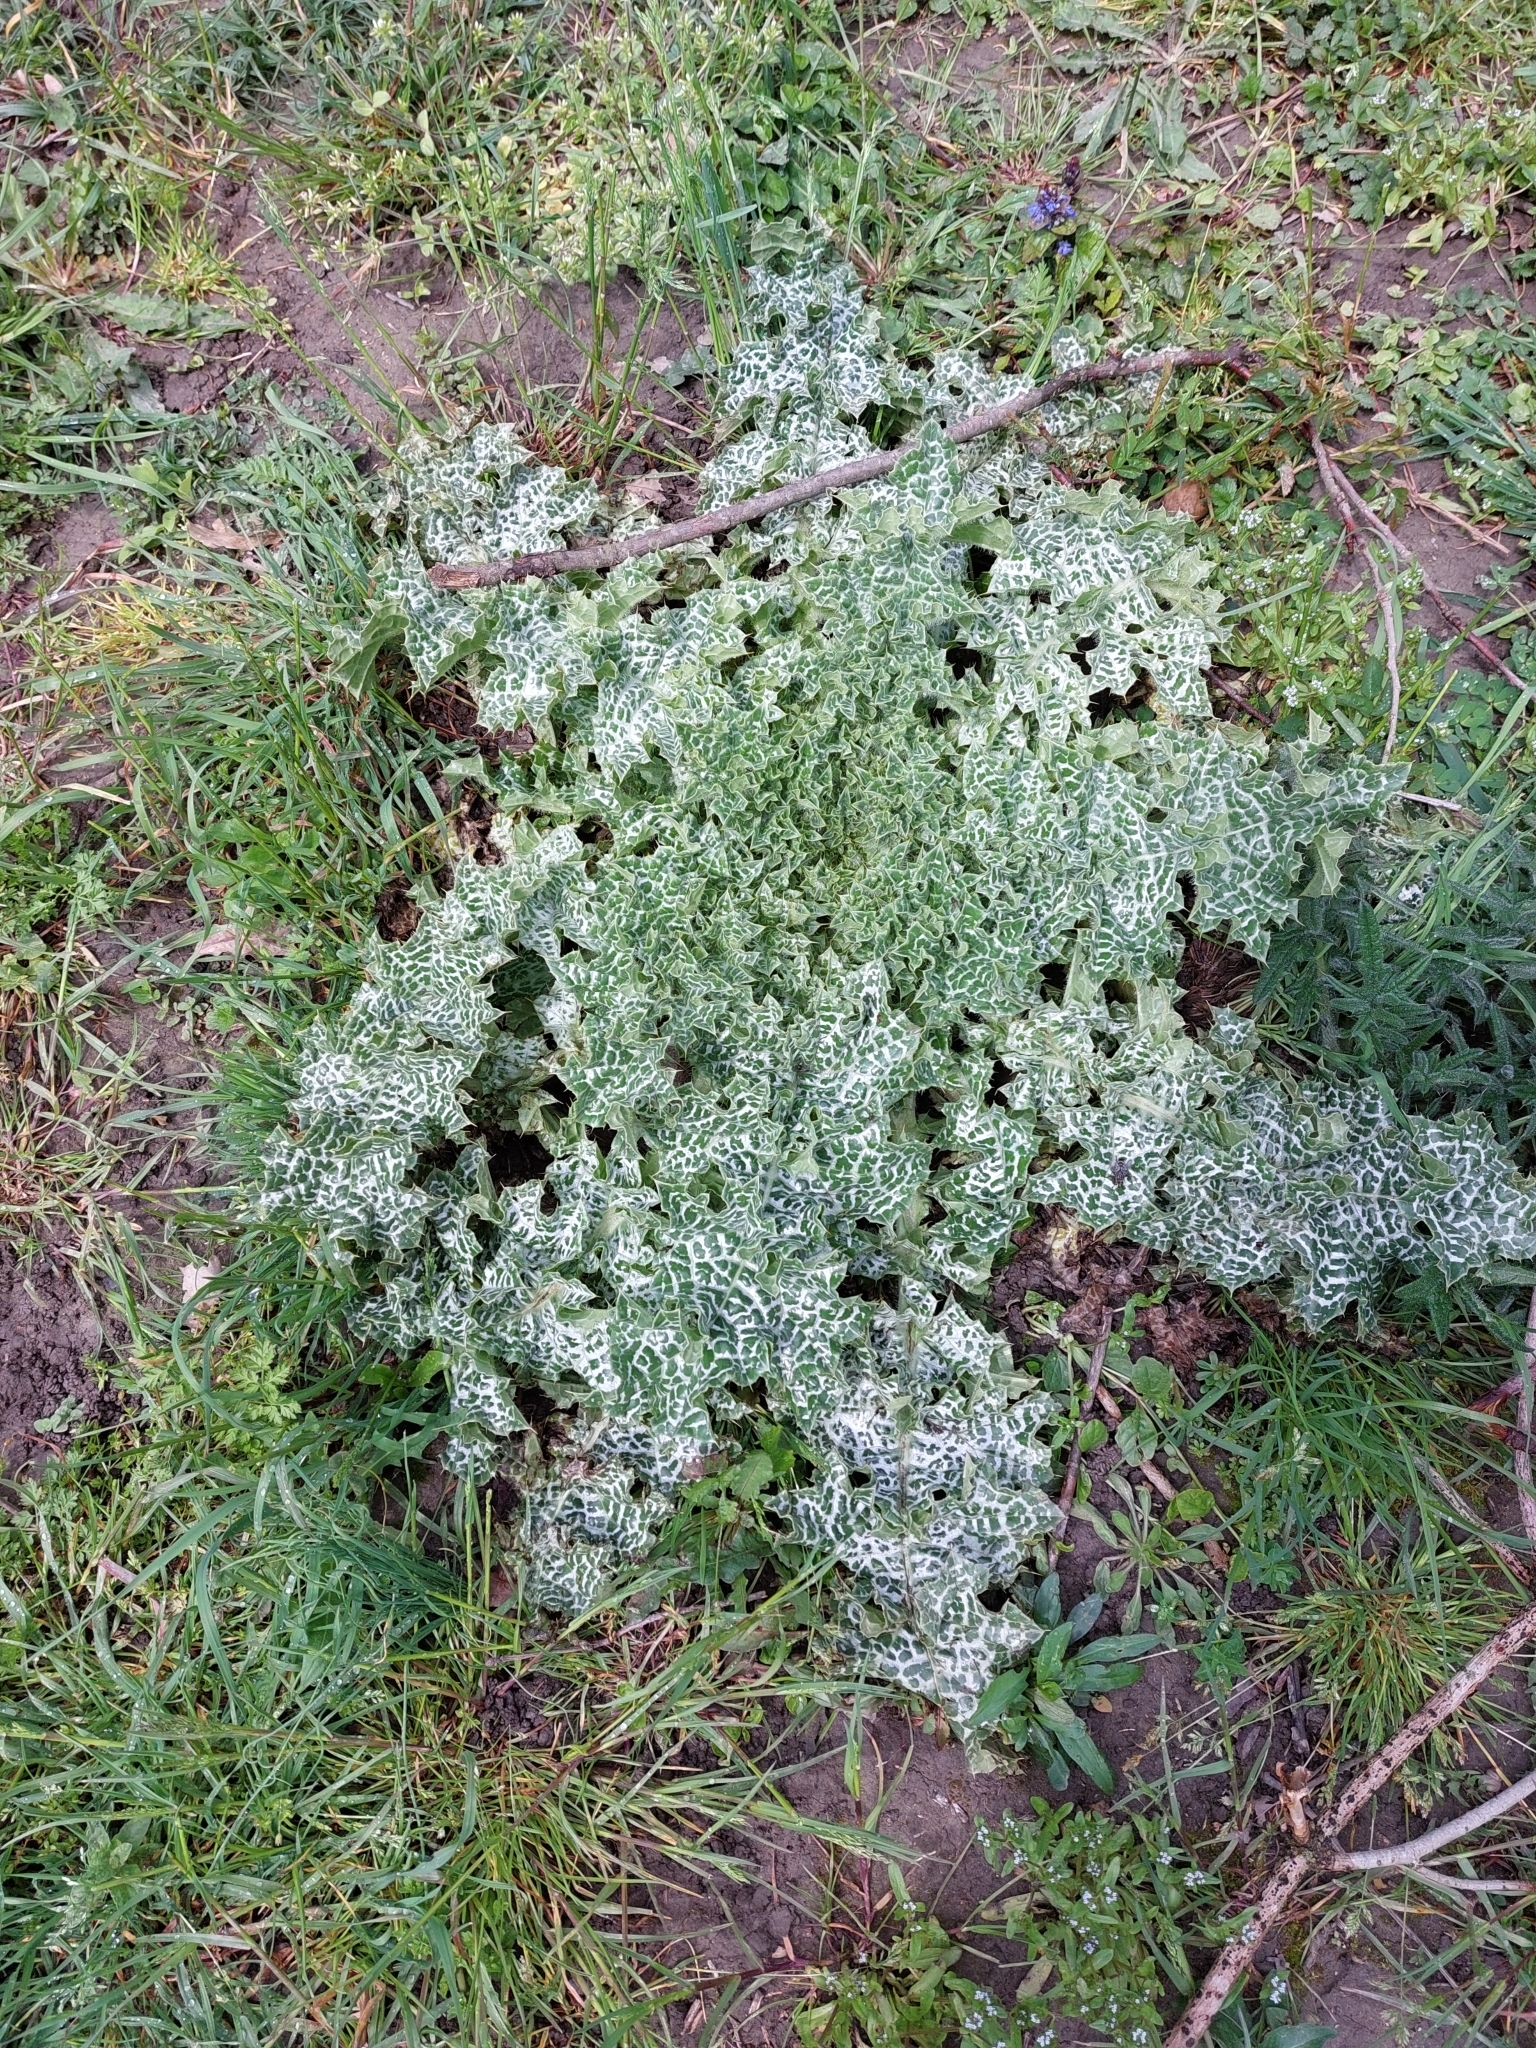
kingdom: Plantae
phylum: Tracheophyta
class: Magnoliopsida
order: Asterales
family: Asteraceae
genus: Silybum
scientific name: Silybum marianum
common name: Milk thistle
